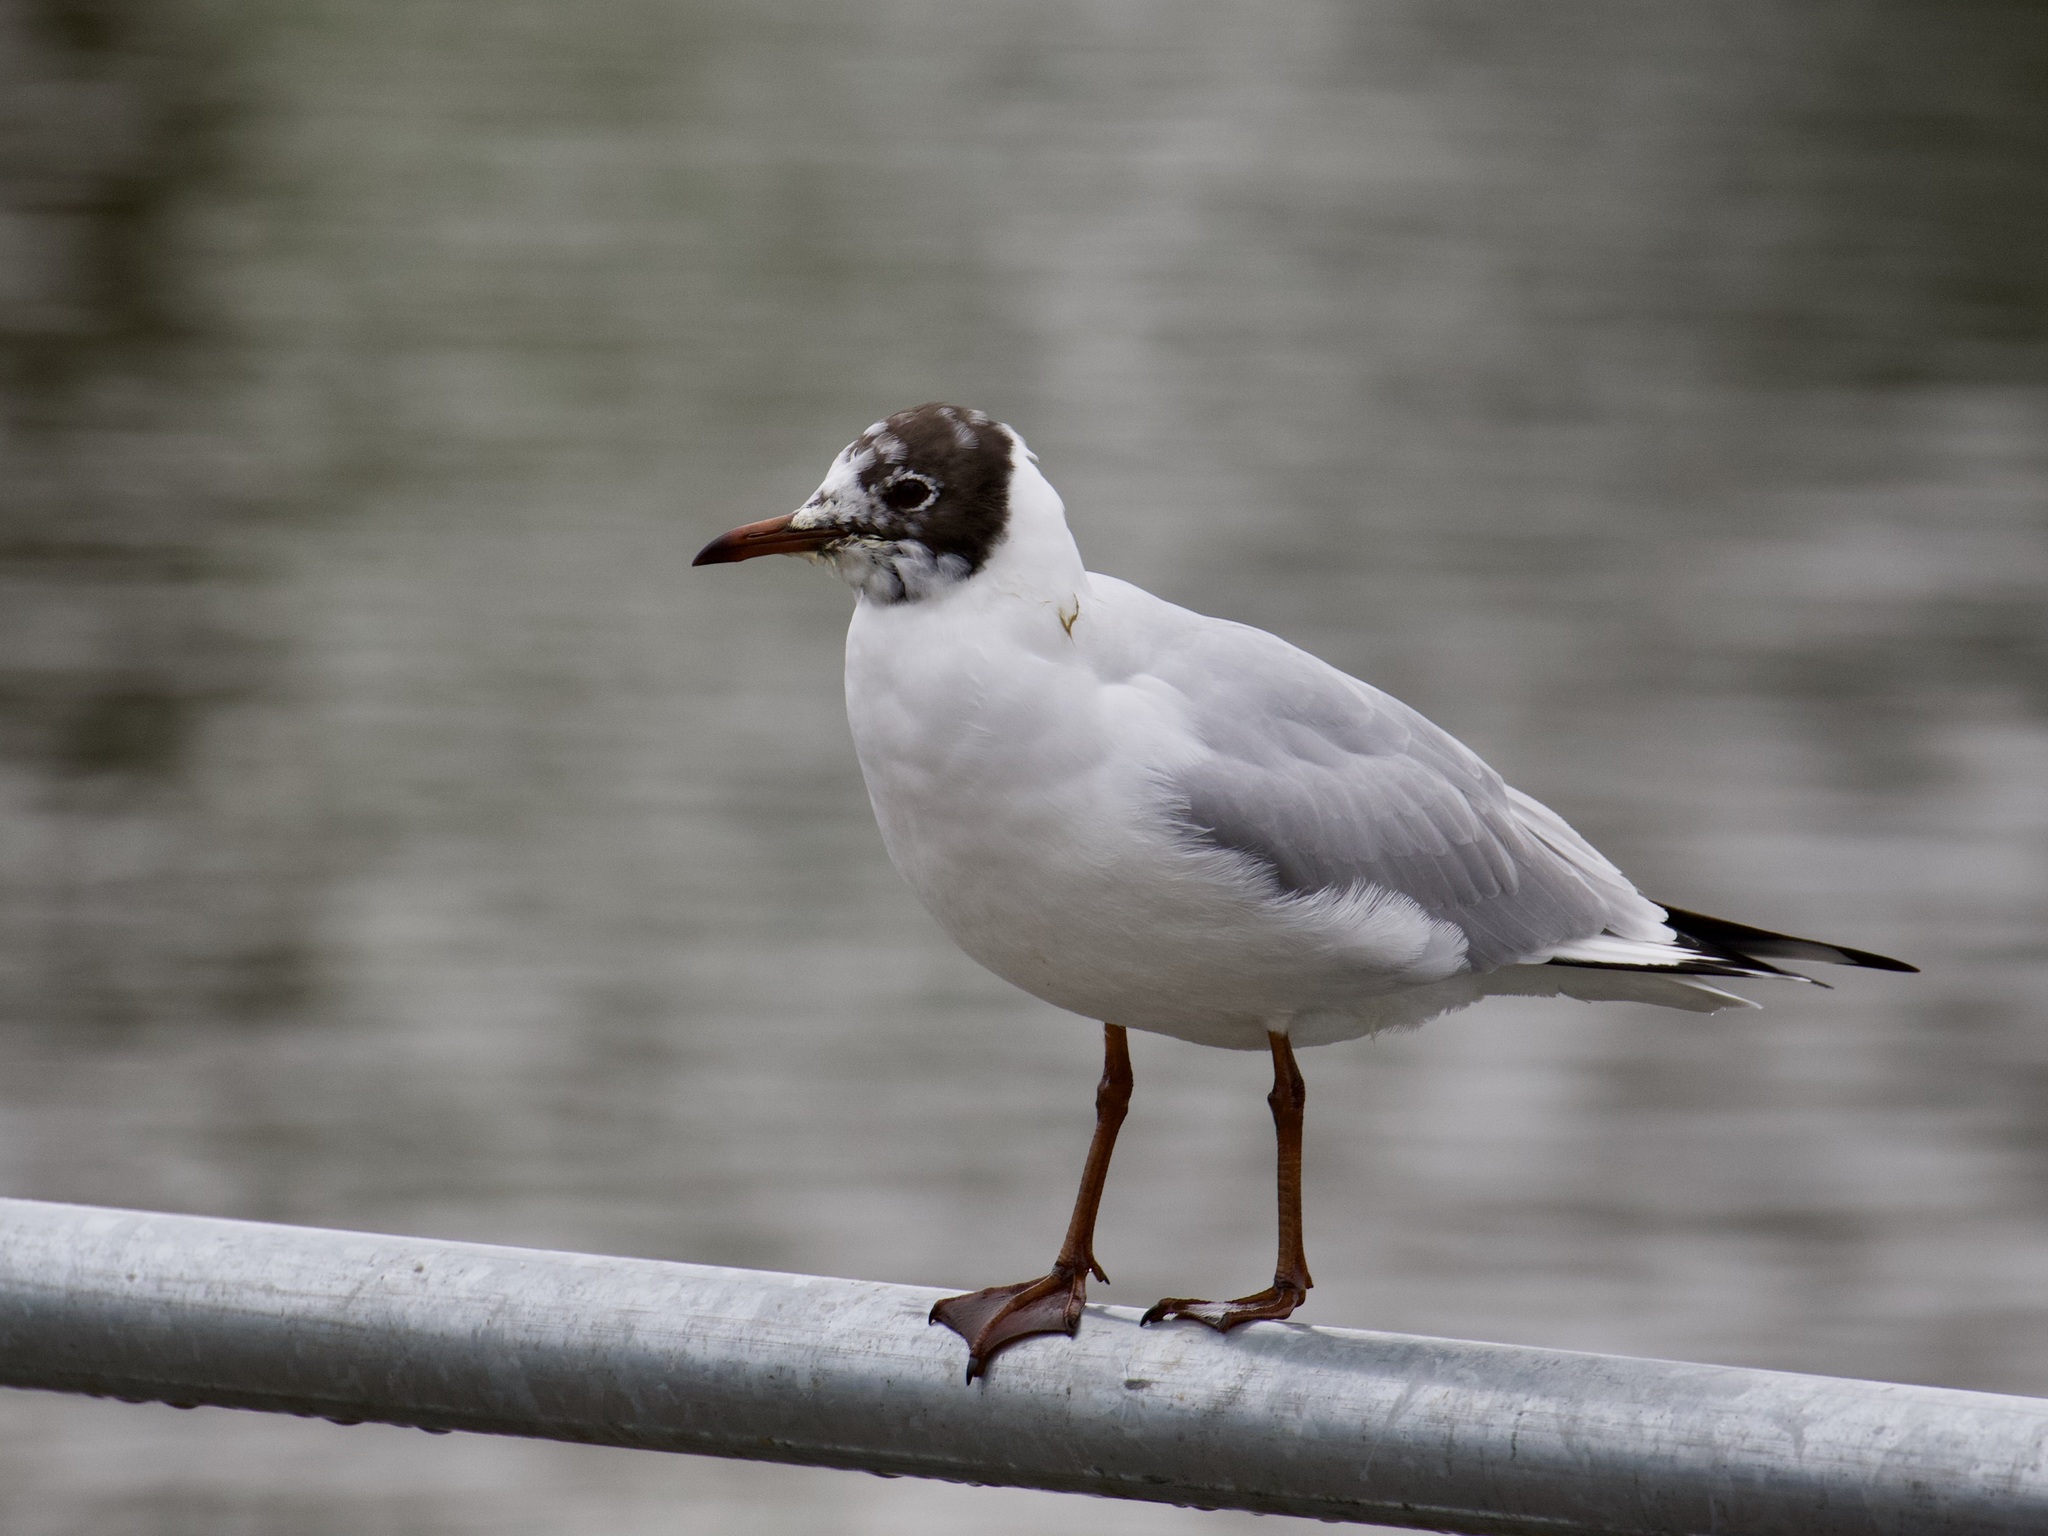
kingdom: Animalia
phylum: Chordata
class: Aves
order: Charadriiformes
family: Laridae
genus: Chroicocephalus
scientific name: Chroicocephalus ridibundus
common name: Black-headed gull
